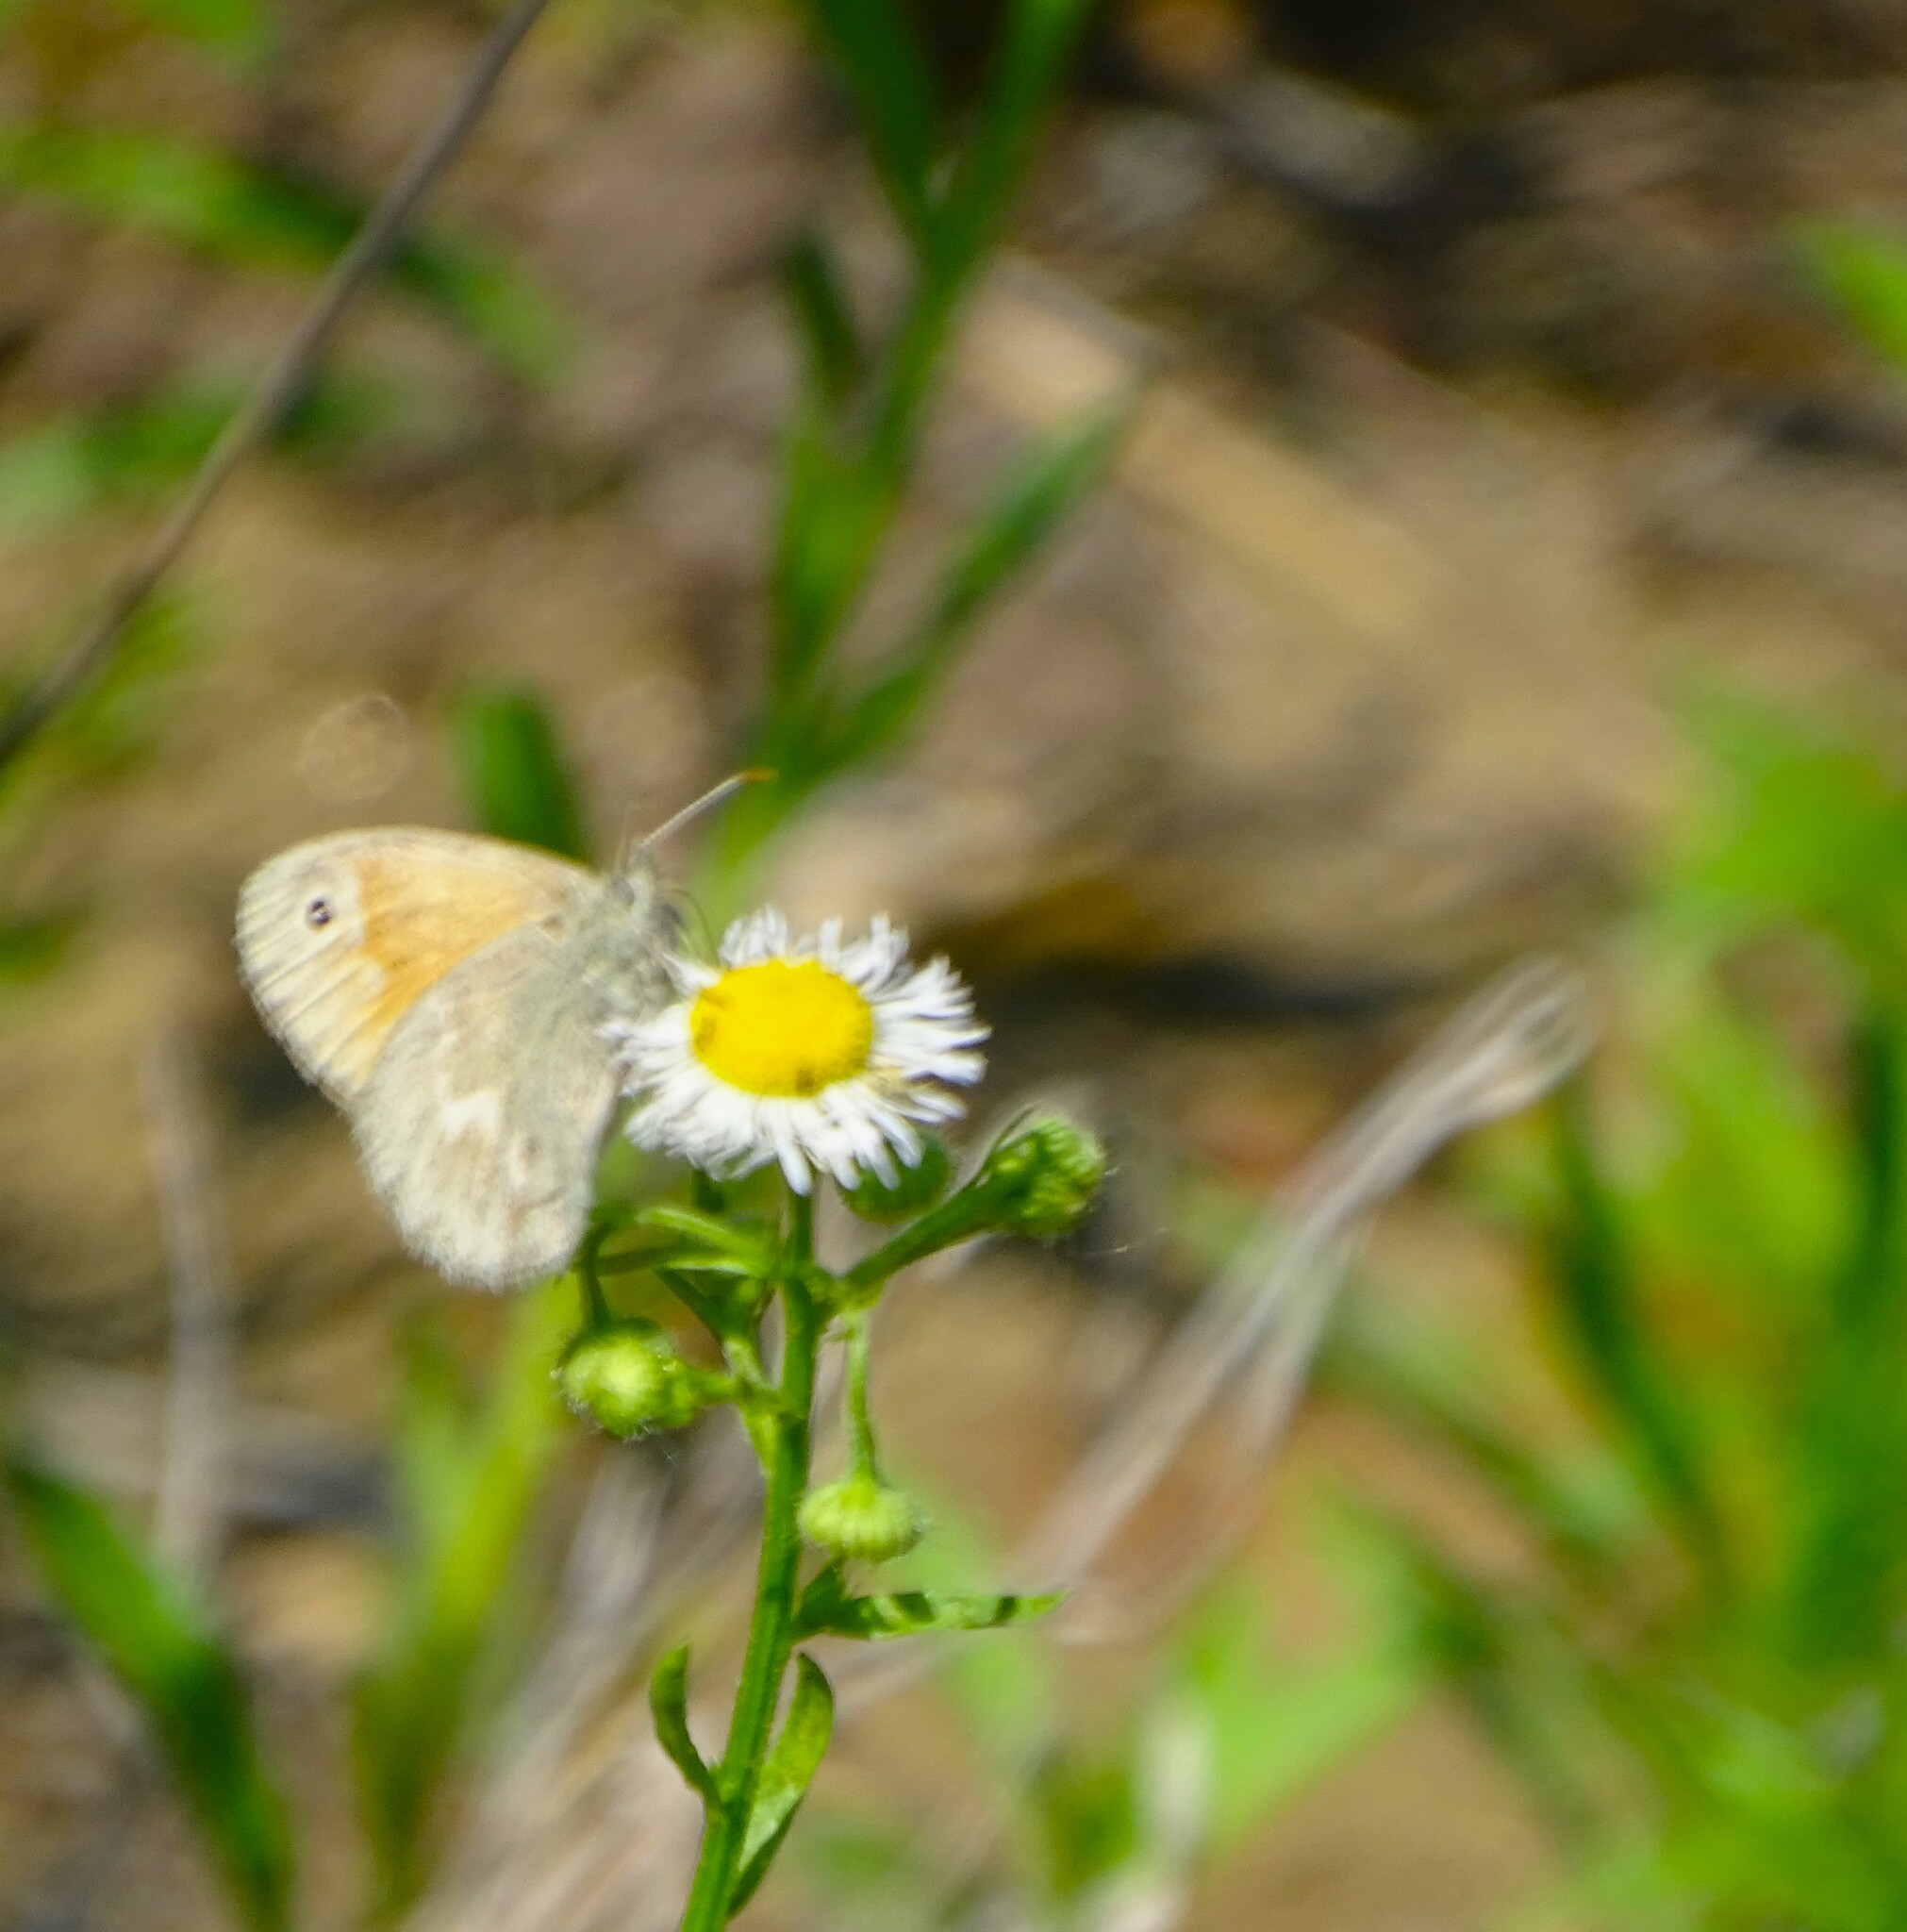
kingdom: Animalia
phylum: Arthropoda
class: Insecta
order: Lepidoptera
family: Nymphalidae
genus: Coenonympha
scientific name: Coenonympha california
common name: Common ringlet
